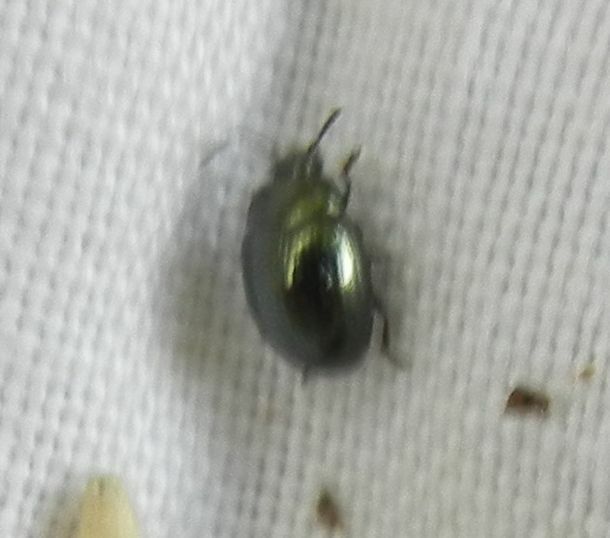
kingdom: Animalia
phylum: Arthropoda
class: Insecta
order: Coleoptera
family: Chrysomelidae
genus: Phaedon
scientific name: Phaedon tumidulus
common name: Celery leaf beetle
